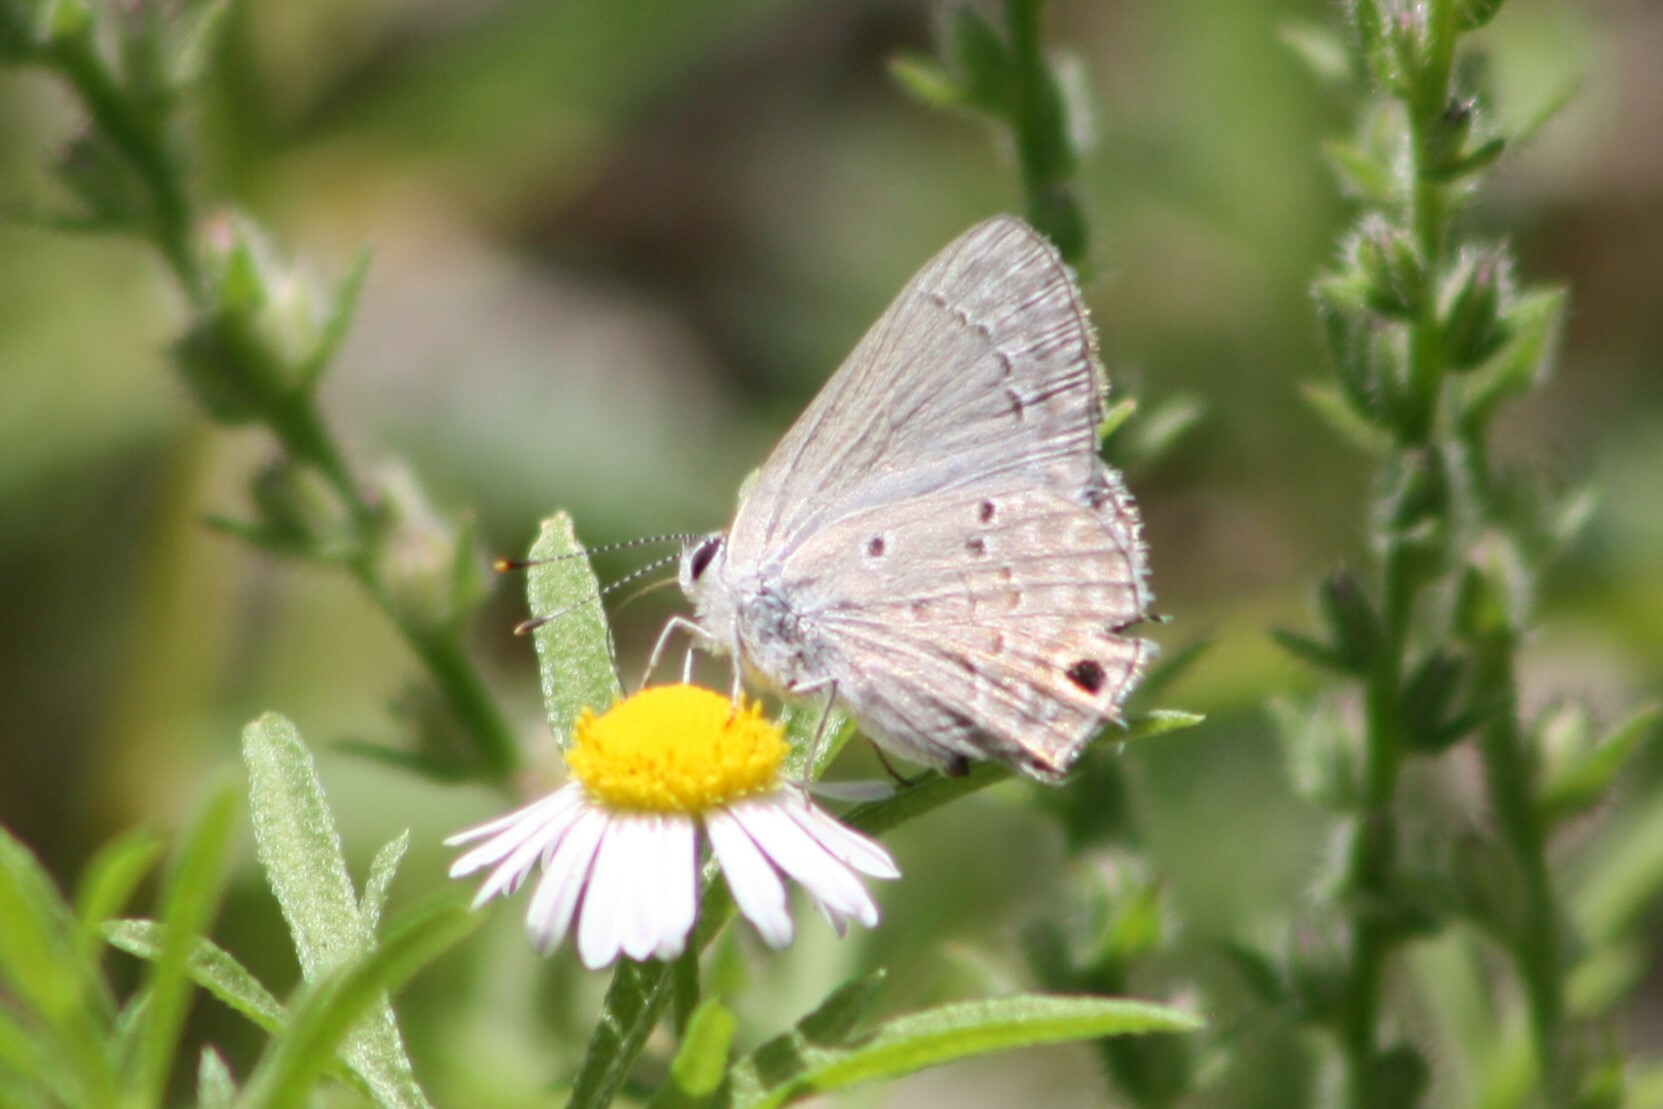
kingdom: Animalia
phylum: Arthropoda
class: Insecta
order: Lepidoptera
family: Lycaenidae
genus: Callicista
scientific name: Callicista columella
